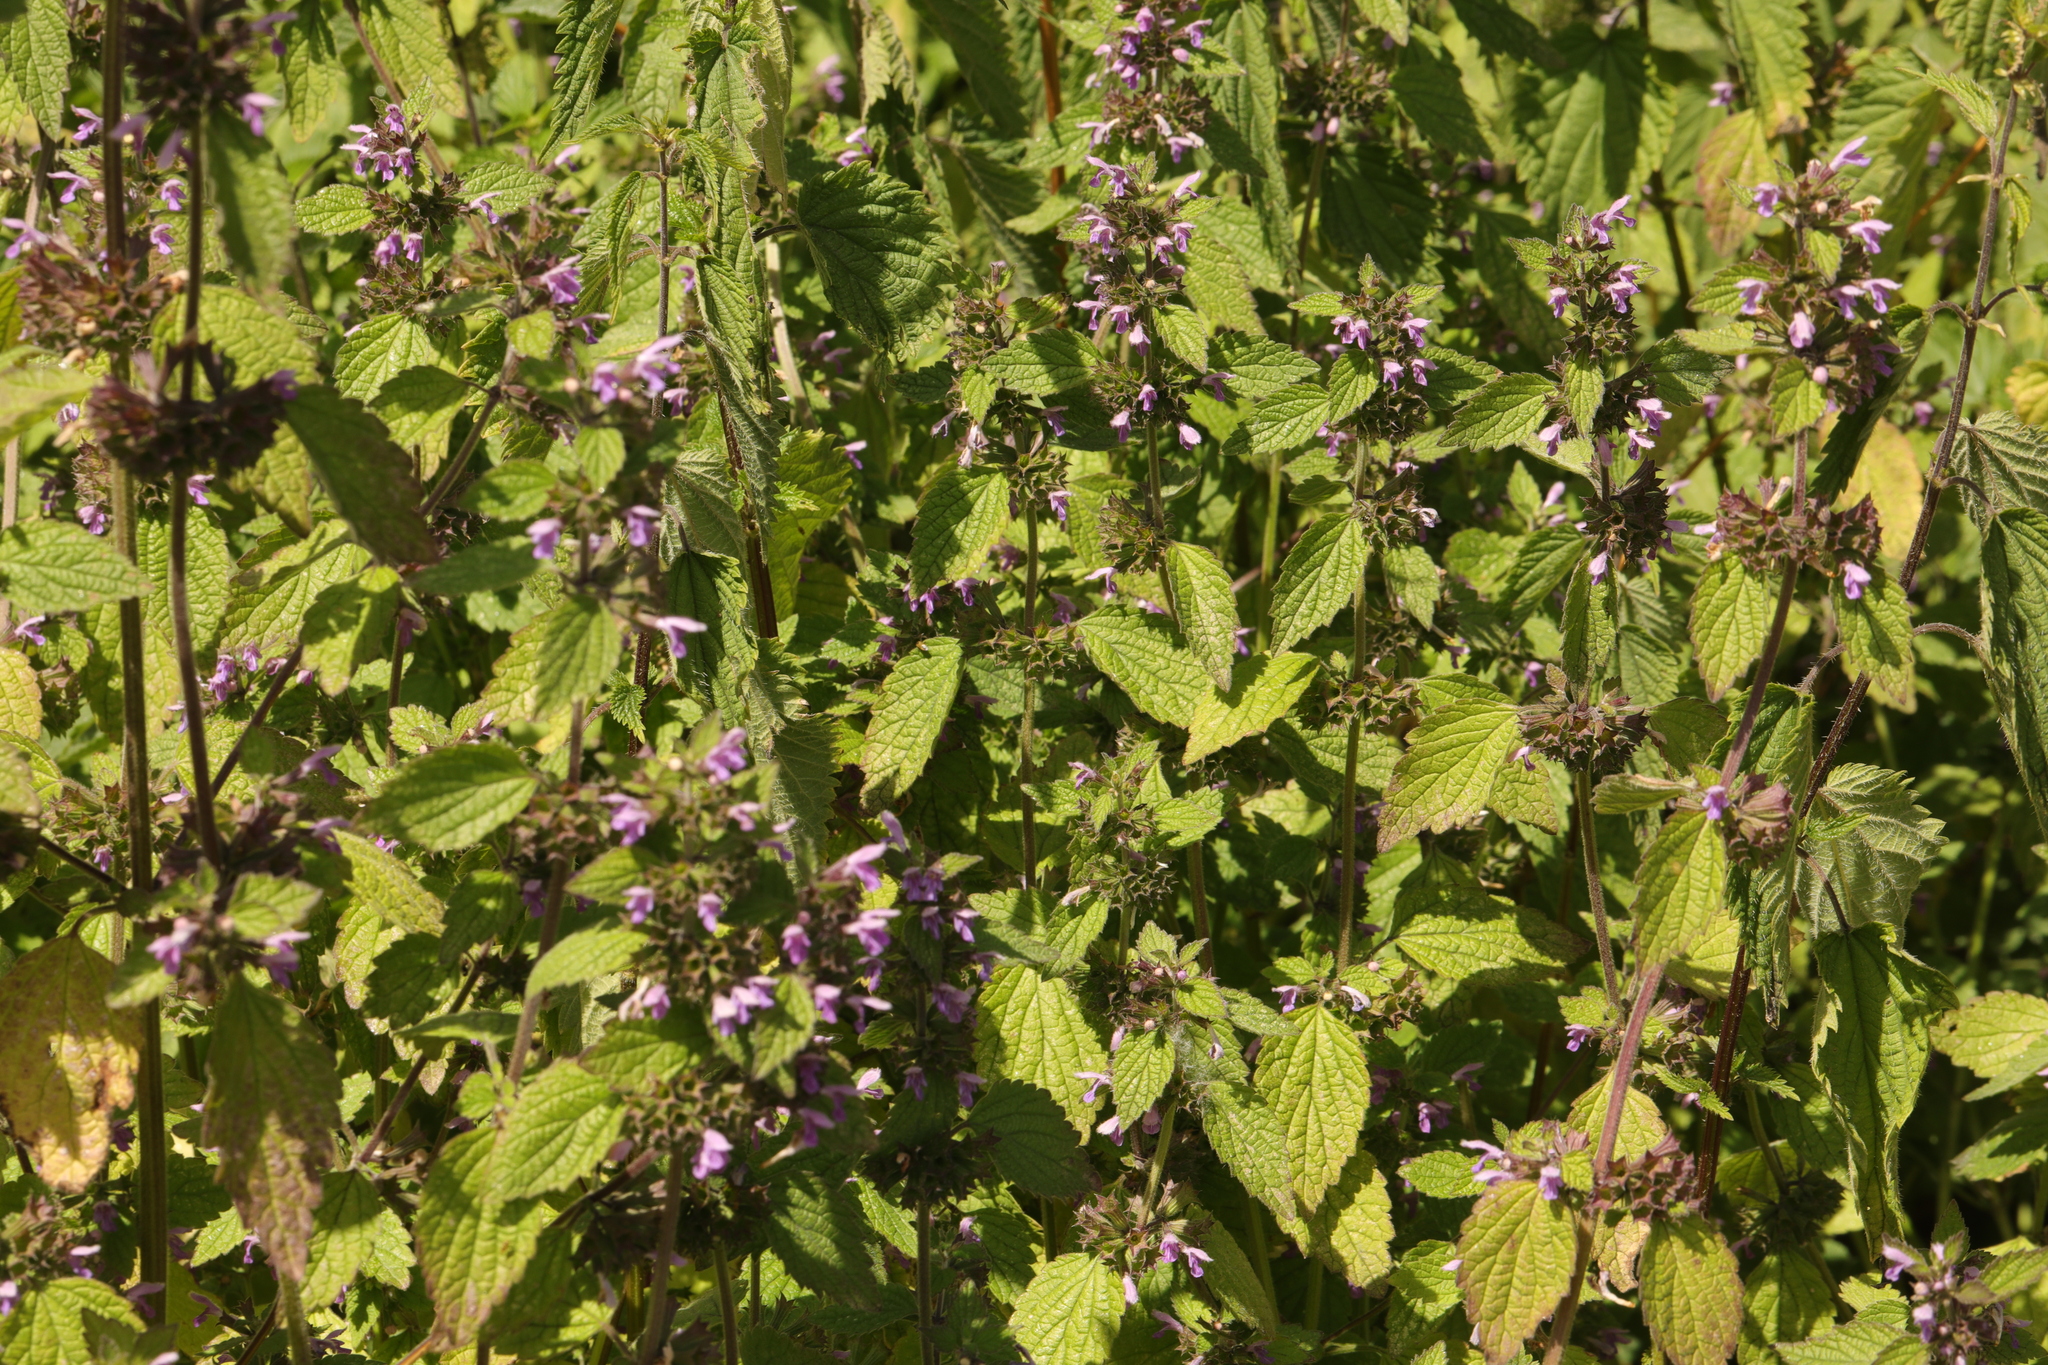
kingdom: Plantae
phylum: Tracheophyta
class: Magnoliopsida
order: Lamiales
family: Lamiaceae
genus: Ballota
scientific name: Ballota nigra
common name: Black horehound
